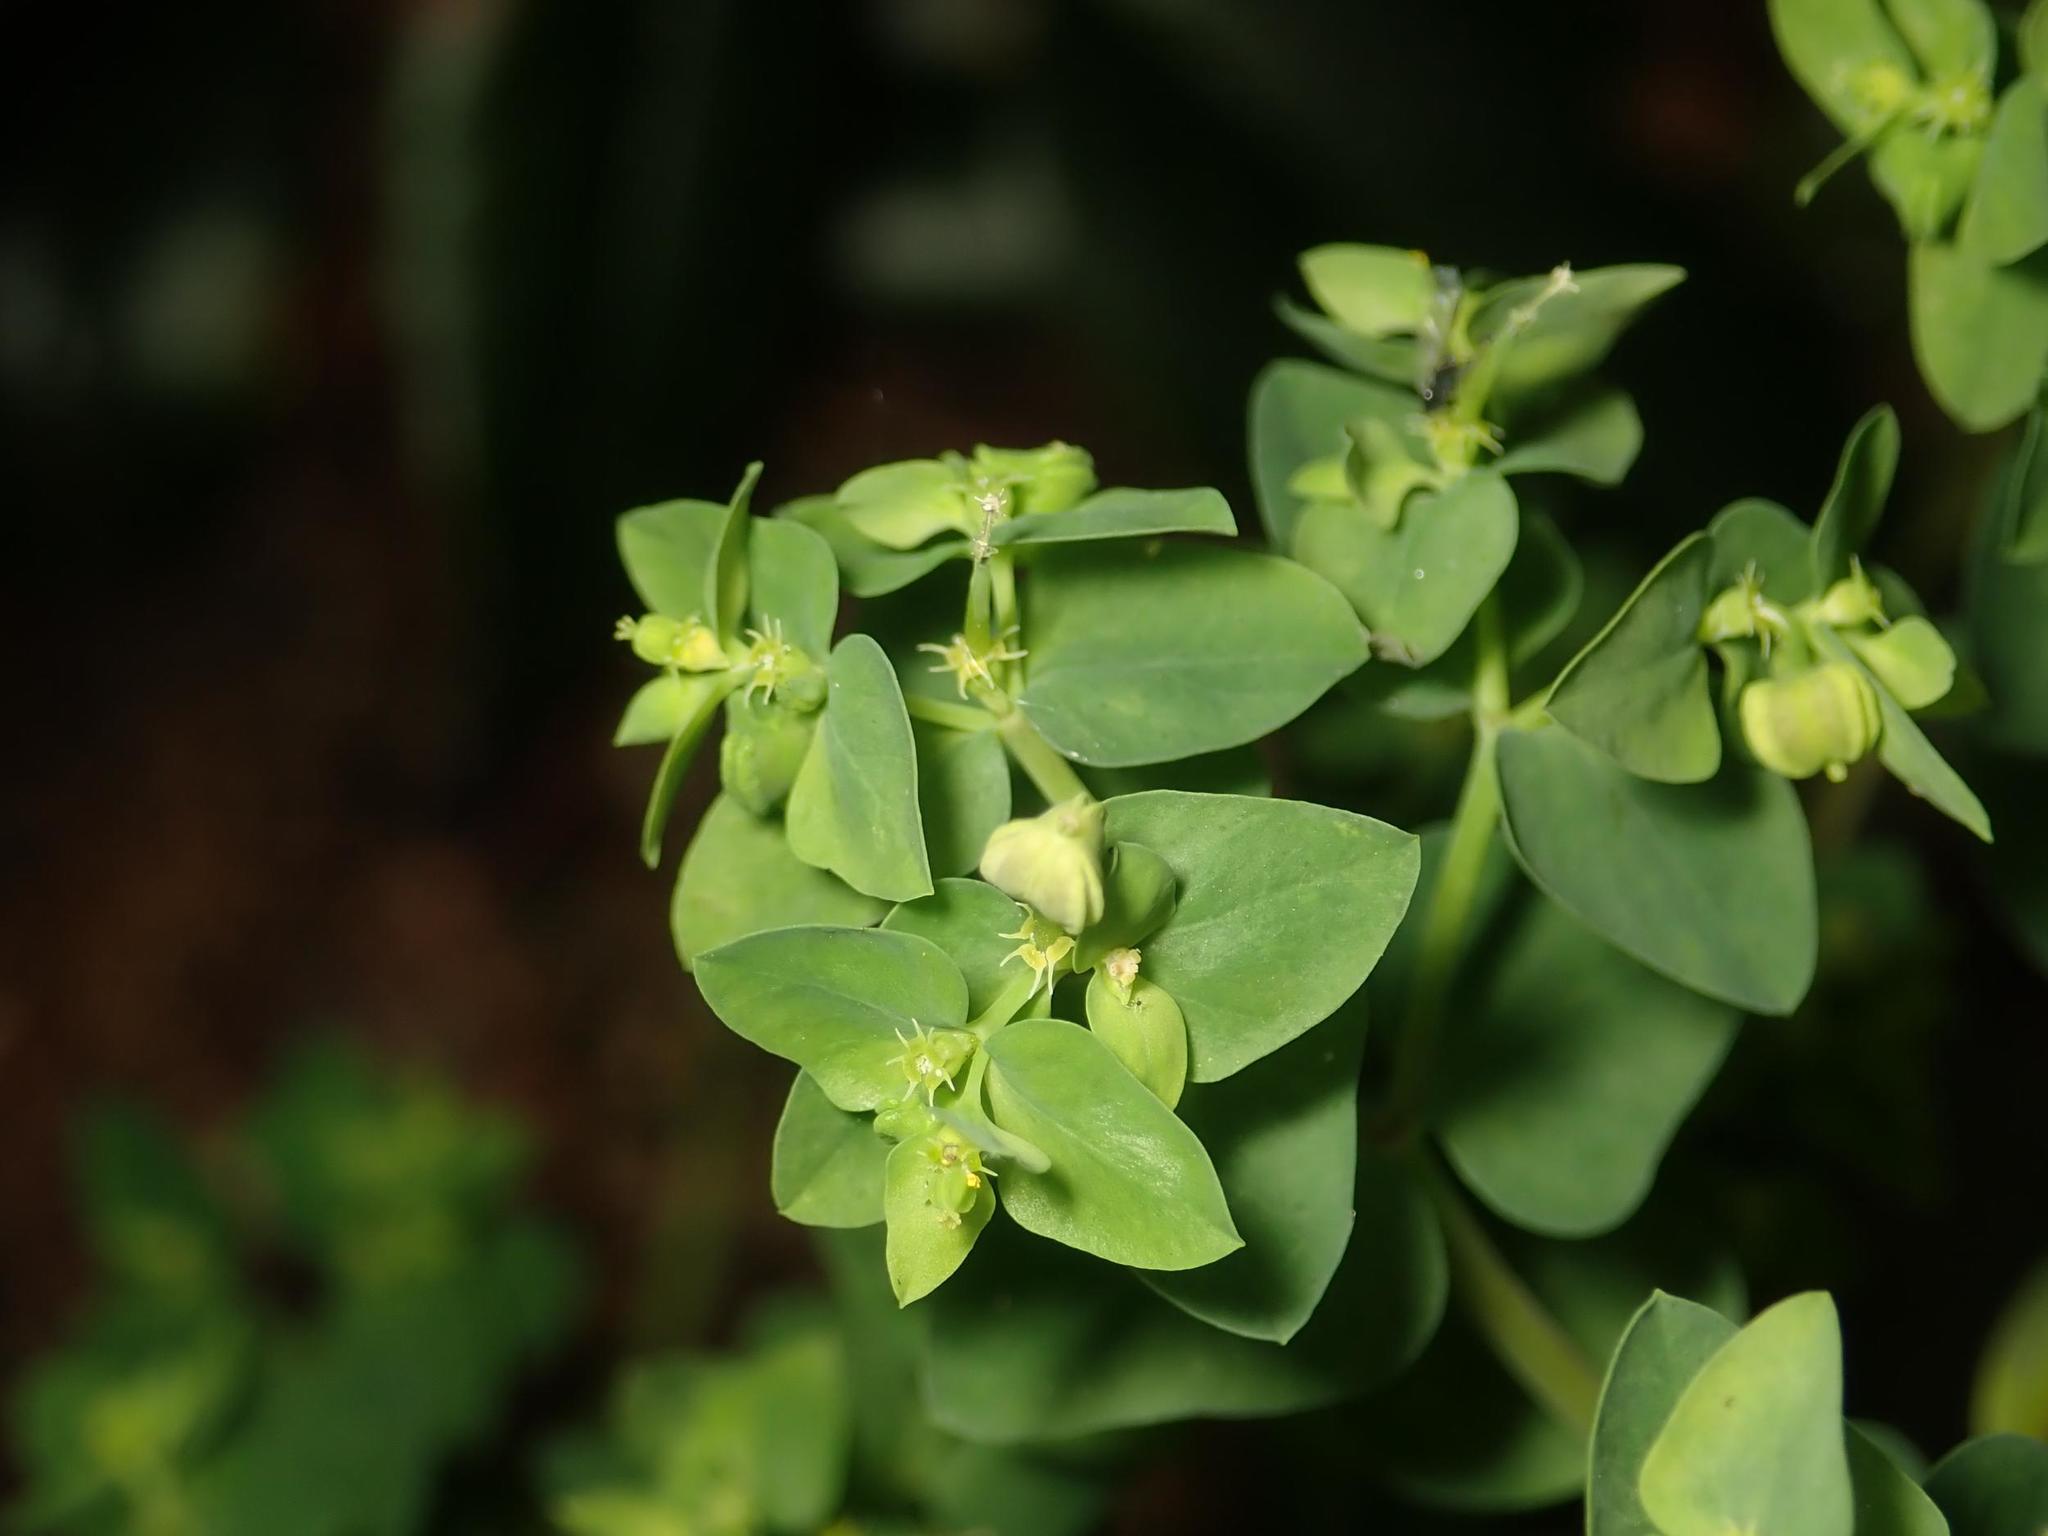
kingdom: Plantae
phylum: Tracheophyta
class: Magnoliopsida
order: Malpighiales
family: Euphorbiaceae
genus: Euphorbia
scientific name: Euphorbia peplus
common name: Petty spurge
